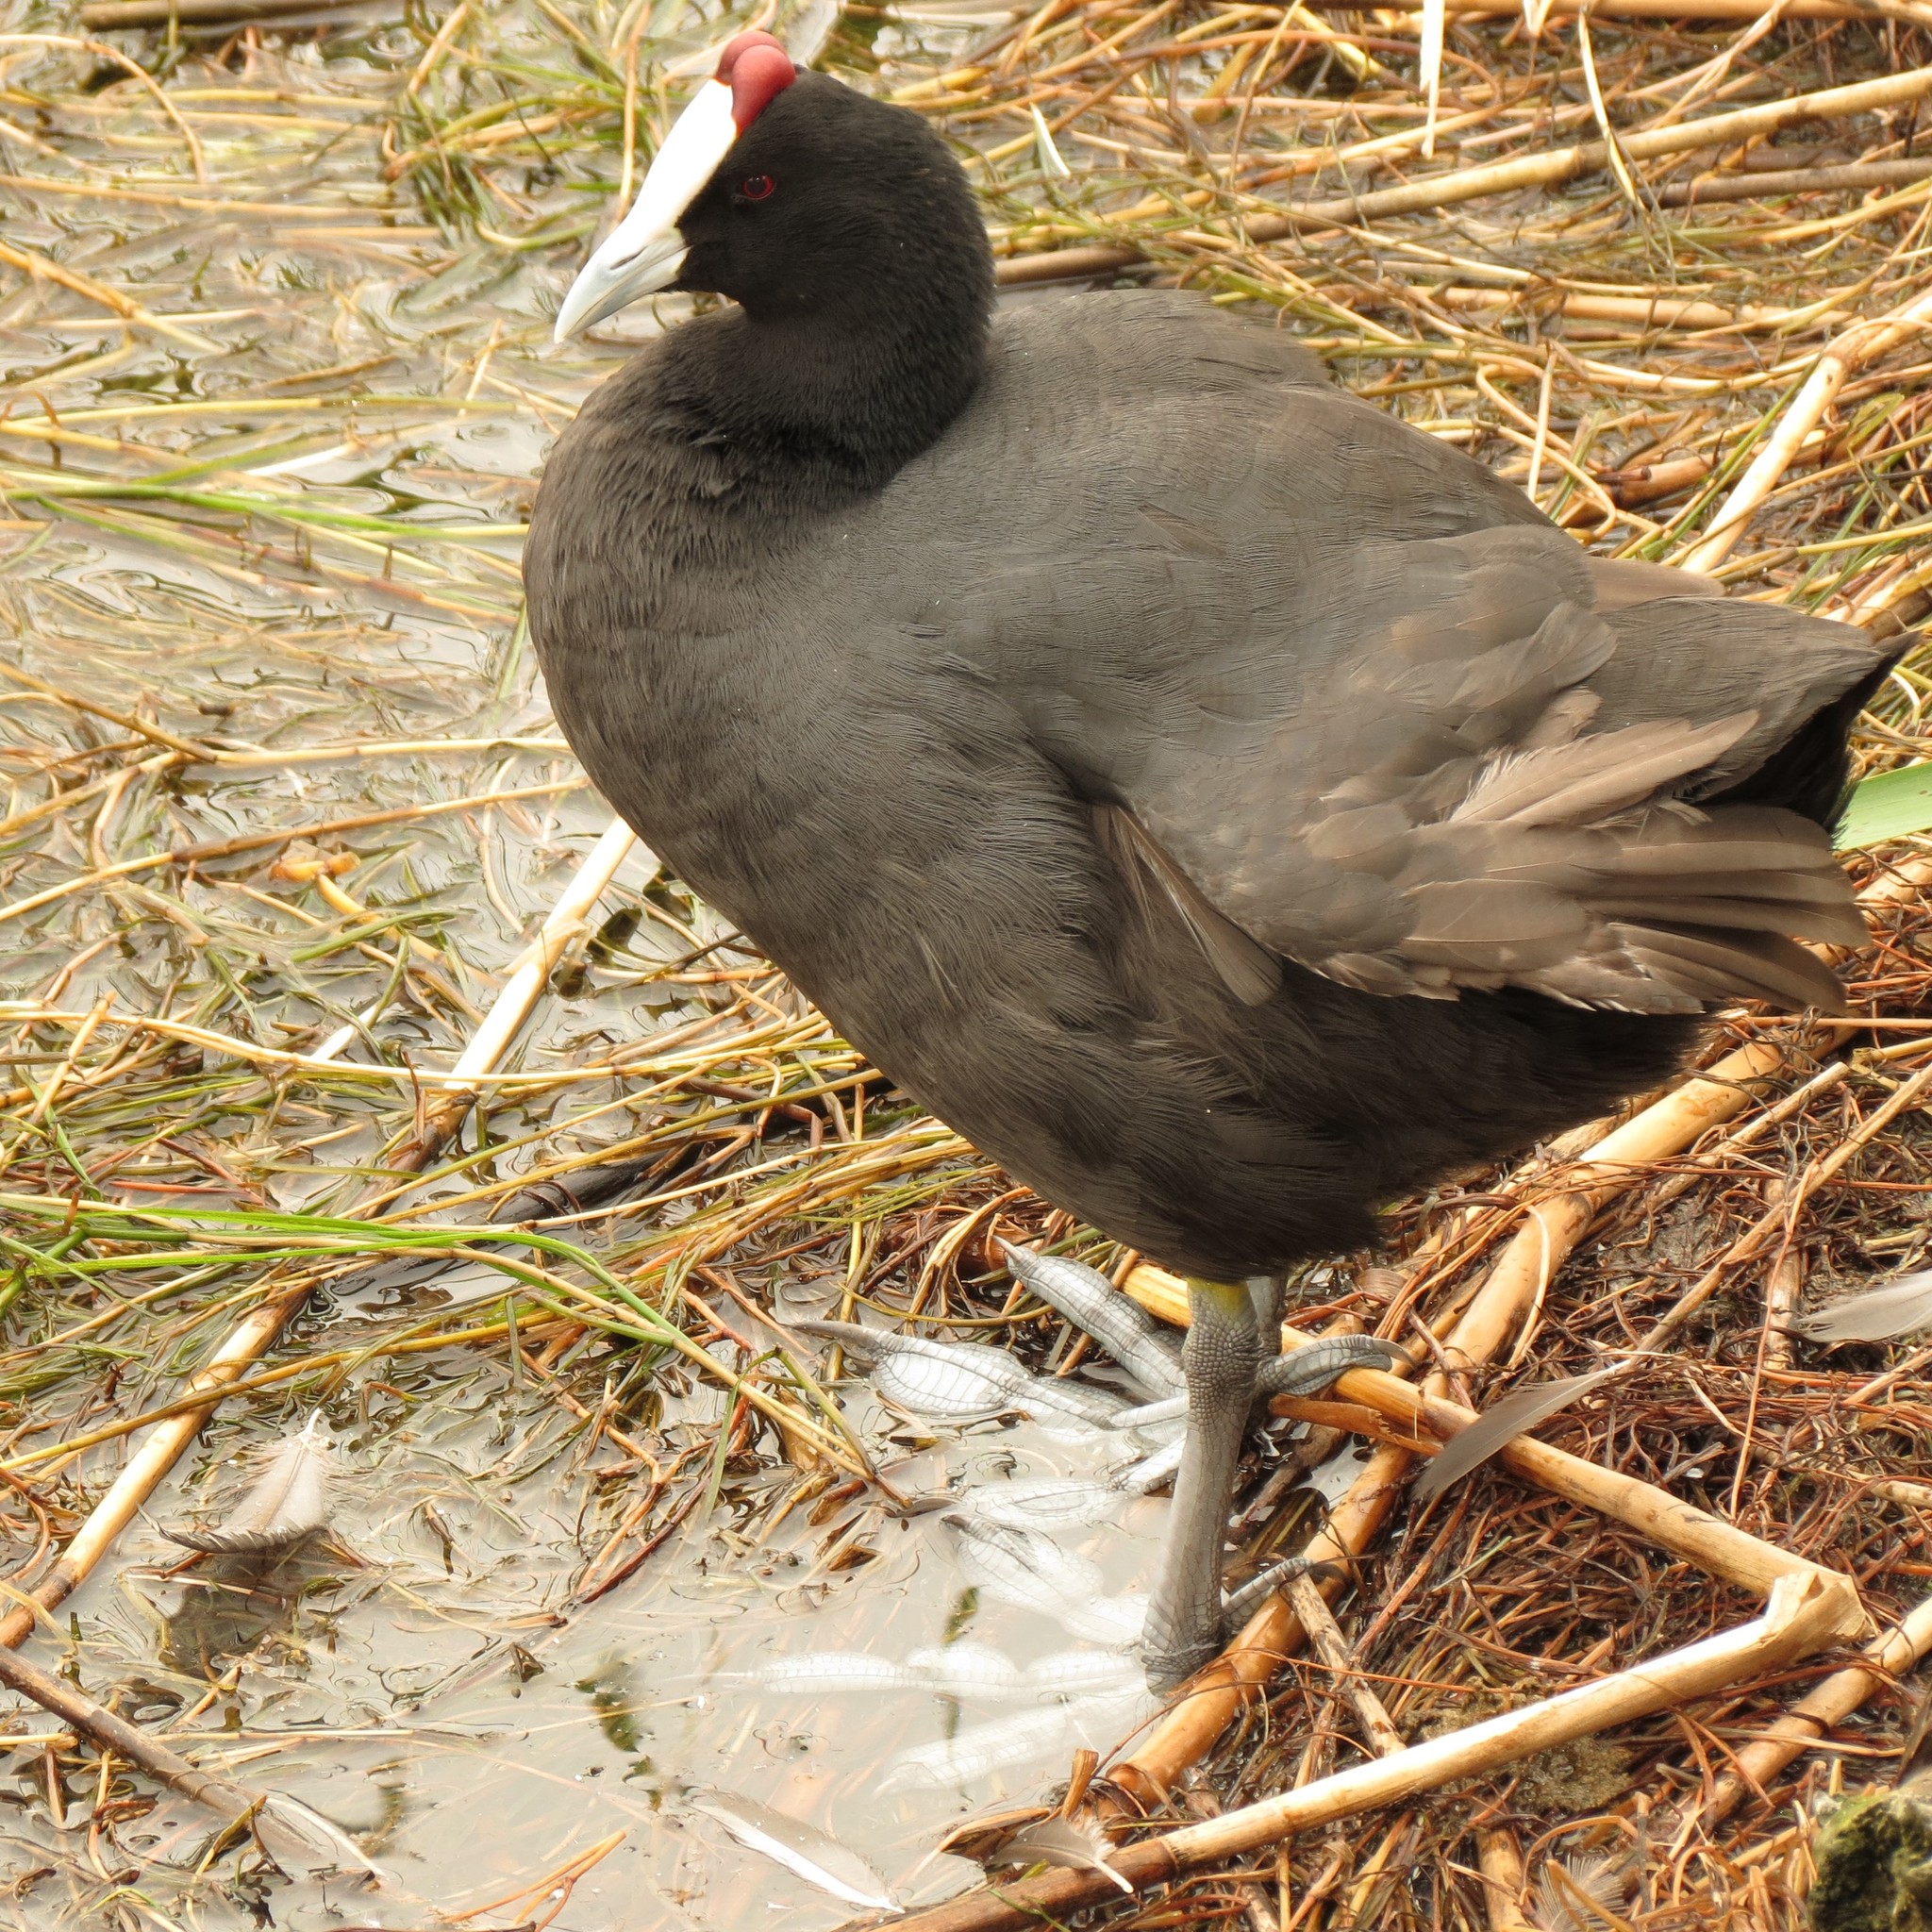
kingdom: Animalia
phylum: Chordata
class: Aves
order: Gruiformes
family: Rallidae
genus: Fulica
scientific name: Fulica cristata
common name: Red-knobbed coot
